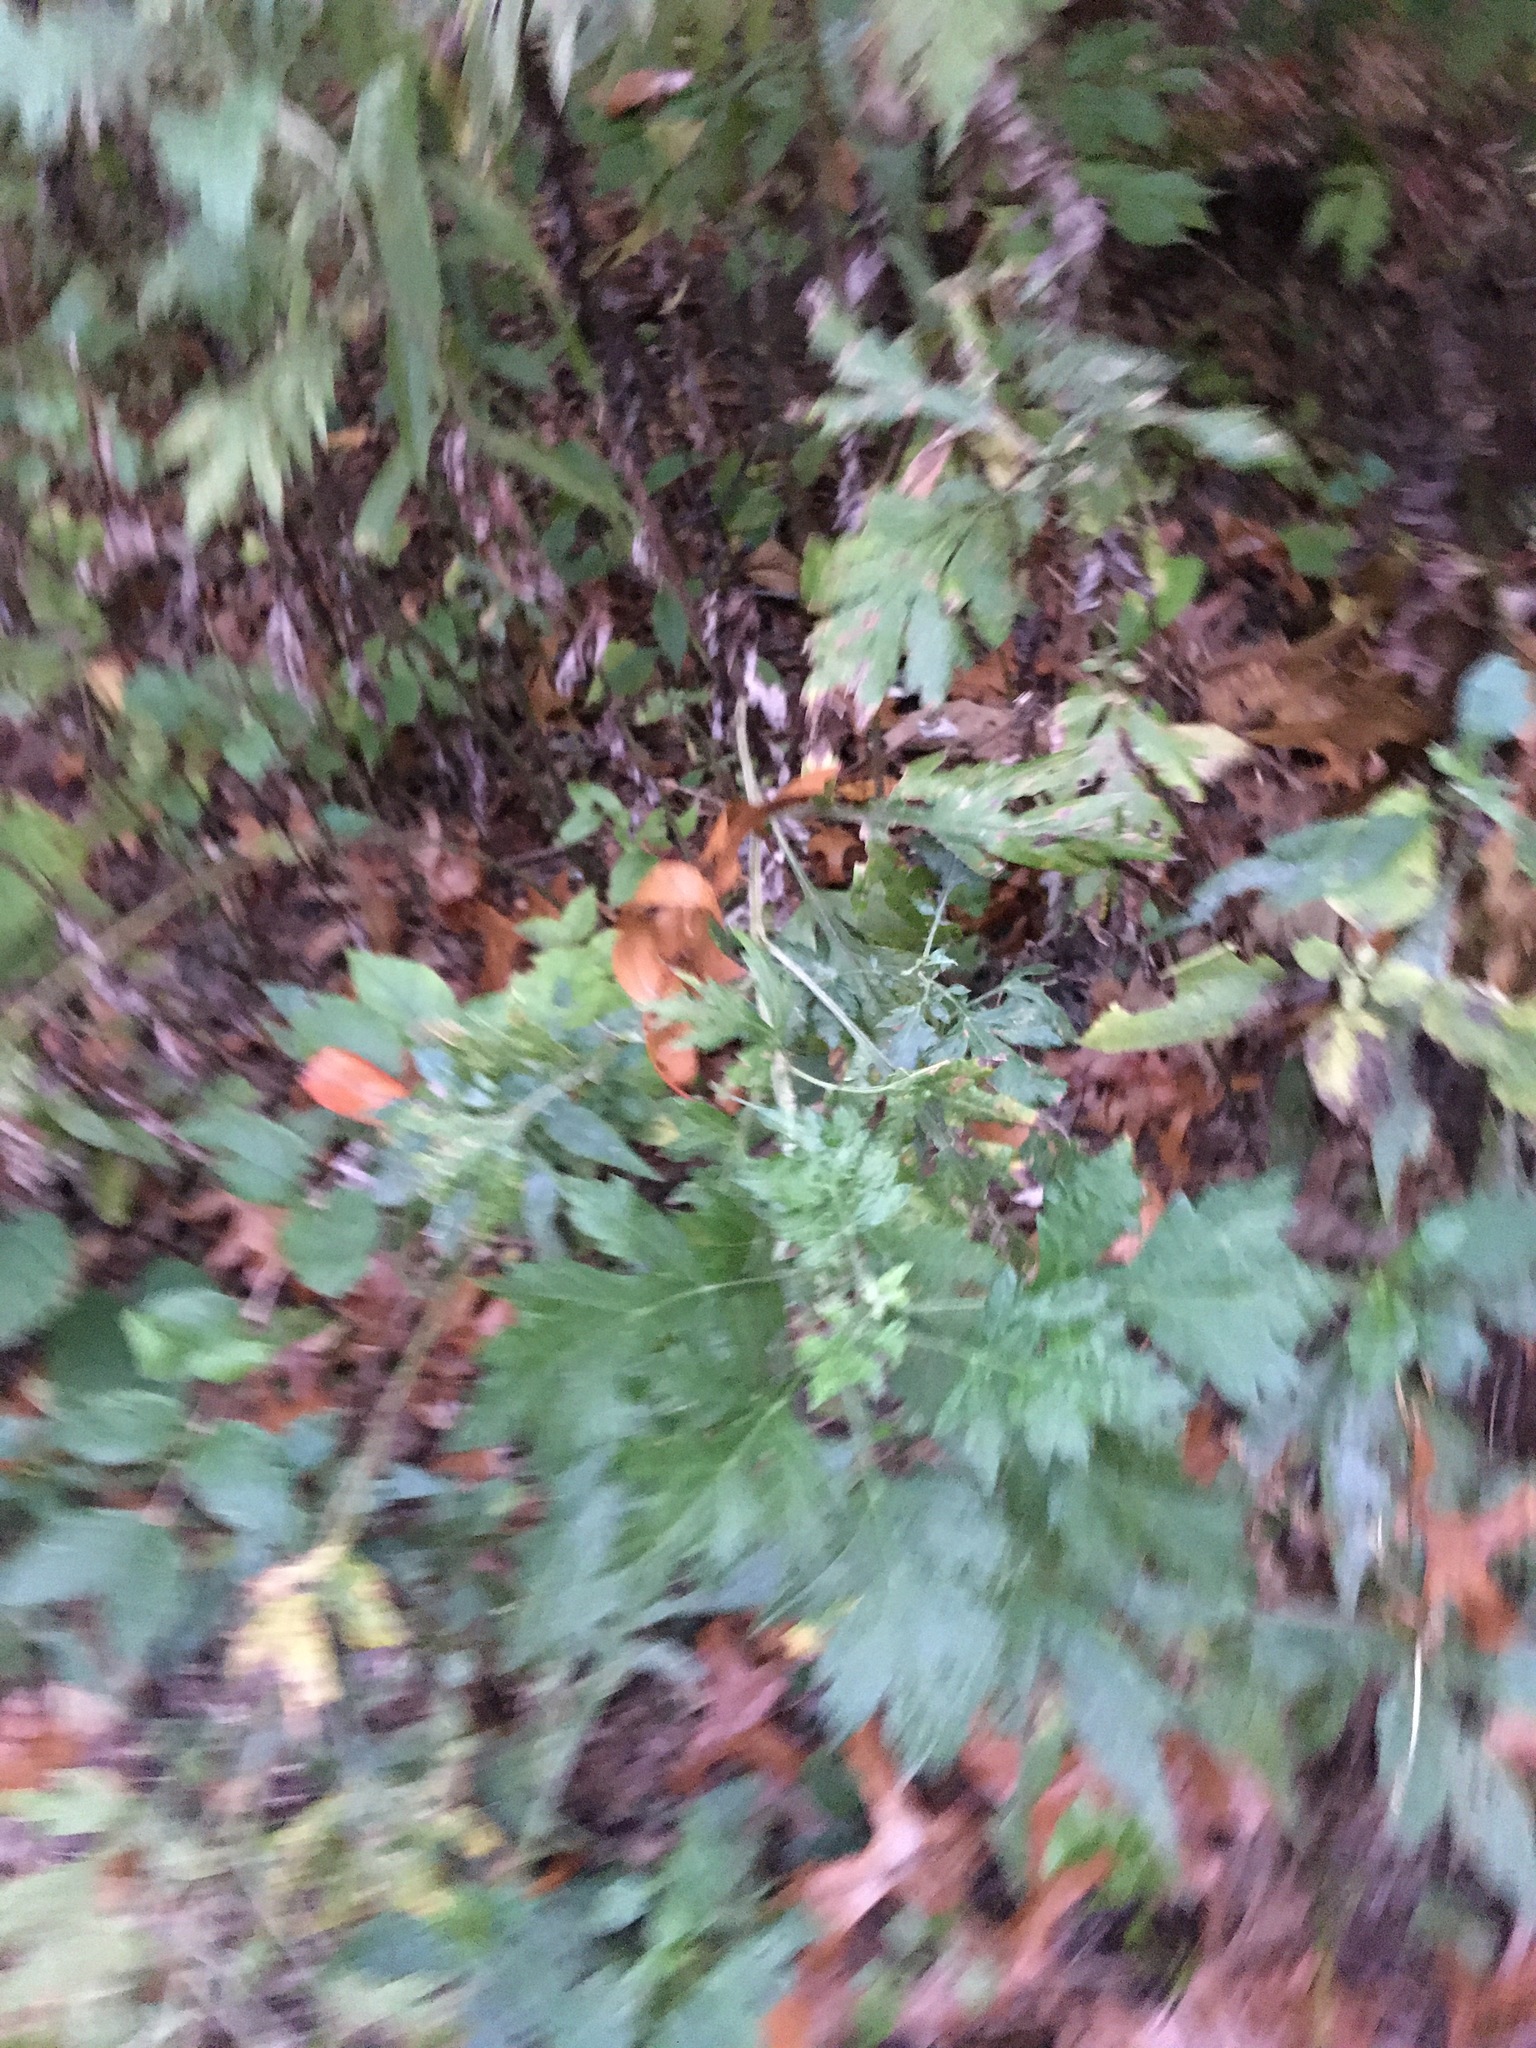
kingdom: Plantae
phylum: Tracheophyta
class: Magnoliopsida
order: Asterales
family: Asteraceae
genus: Artemisia
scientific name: Artemisia vulgaris
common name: Mugwort
